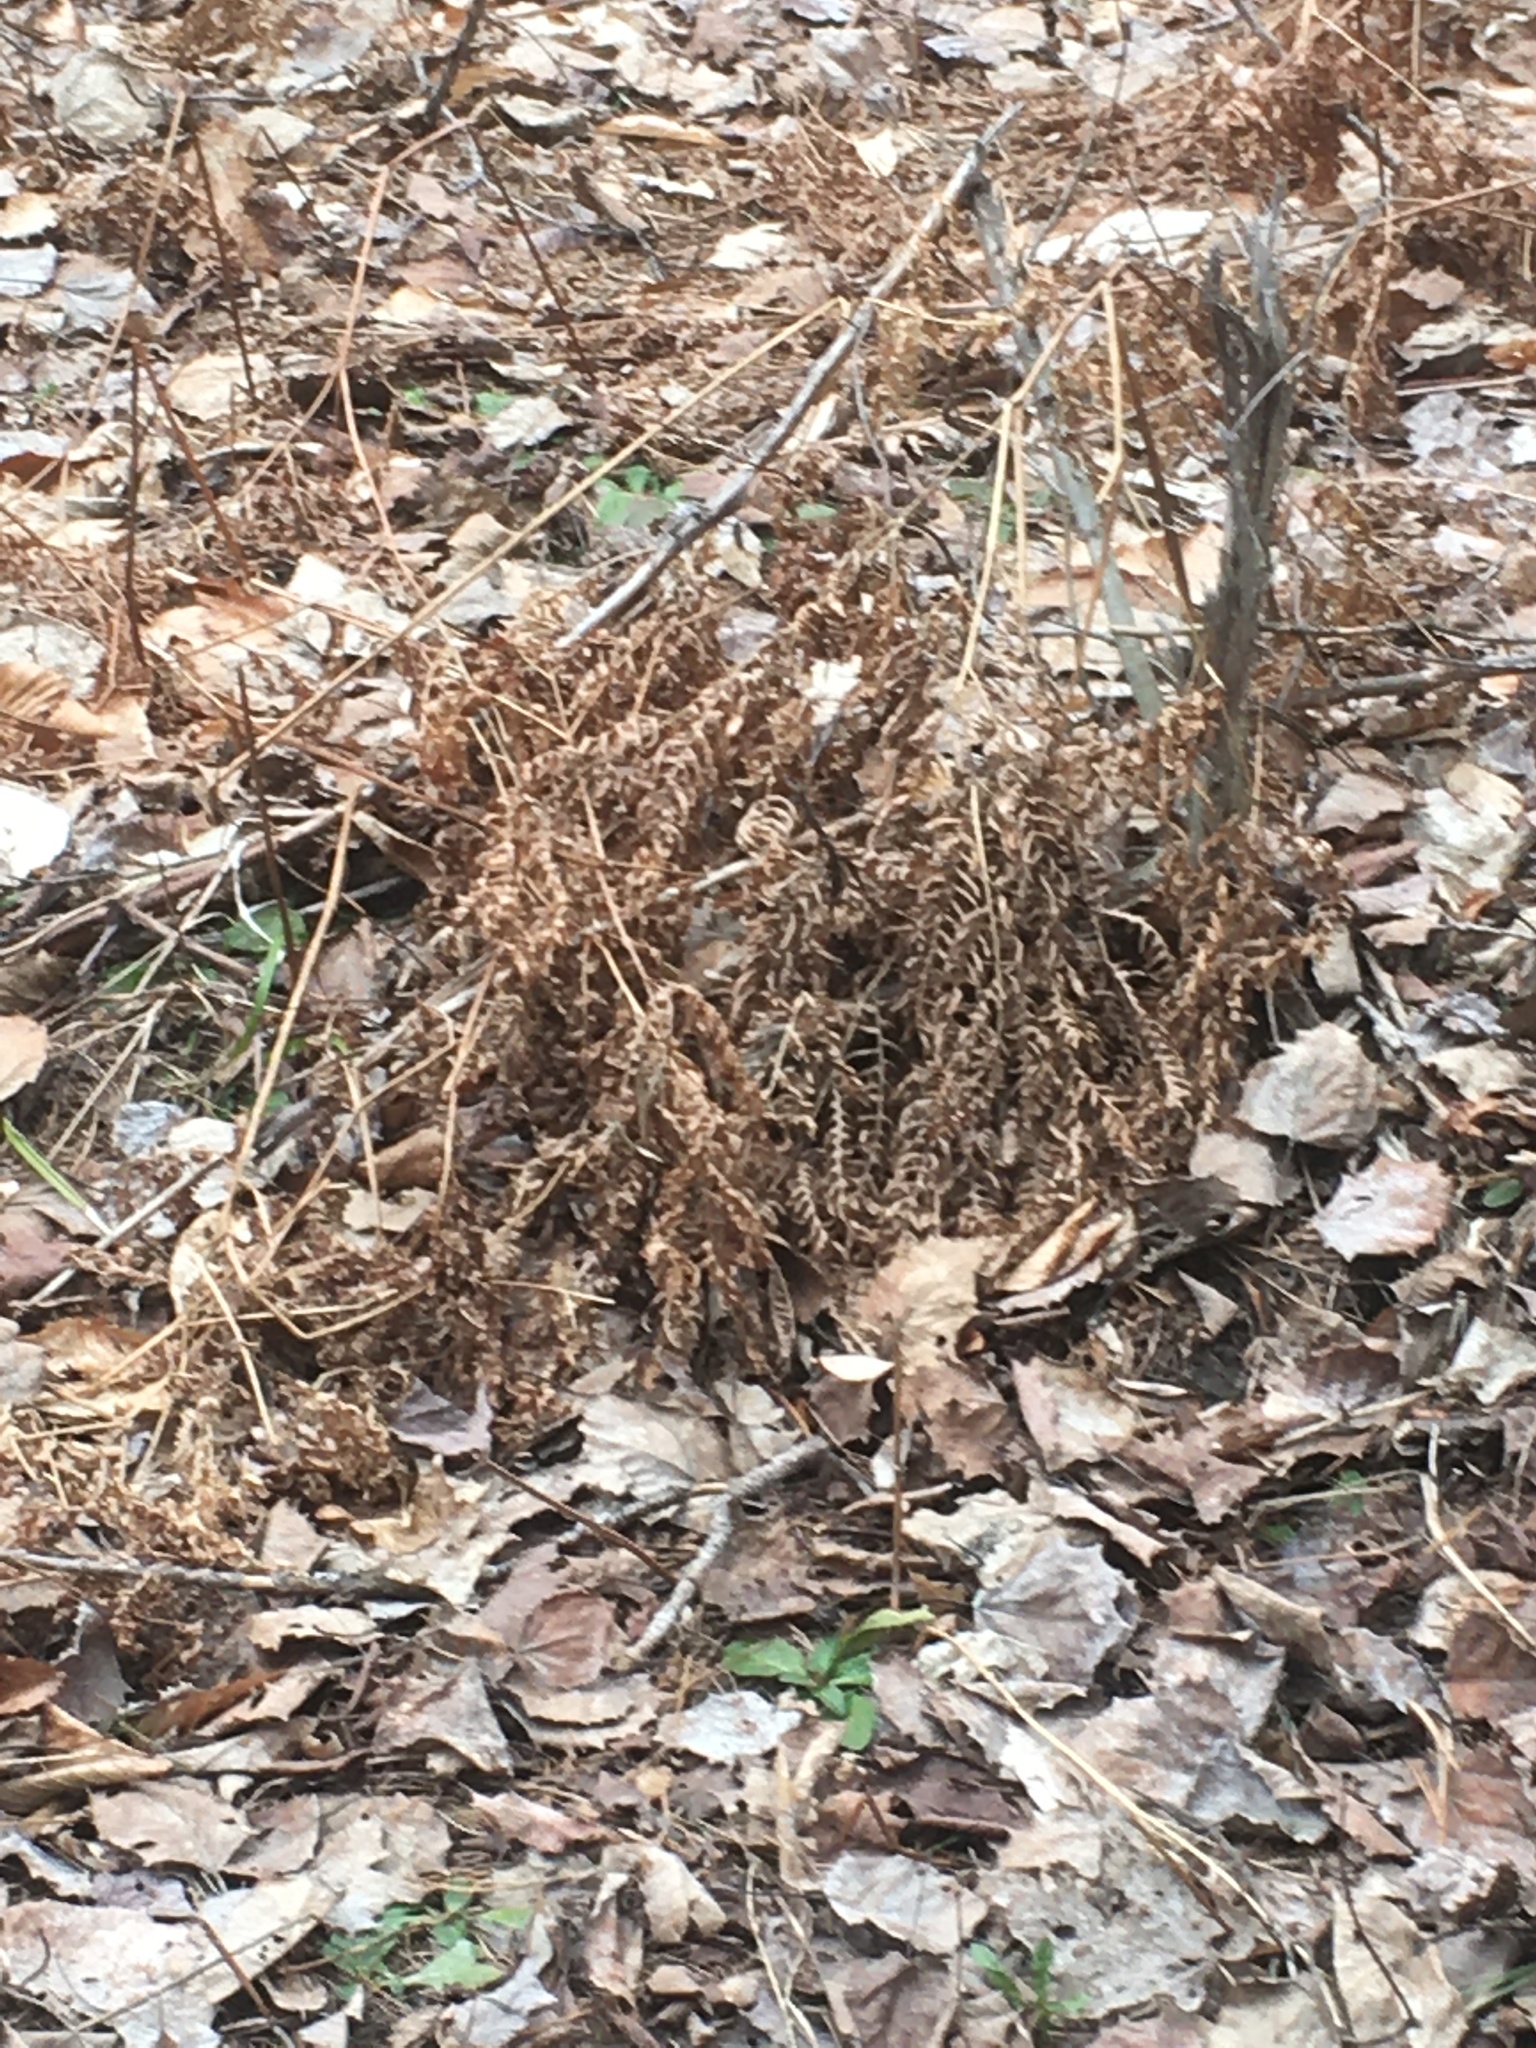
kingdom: Plantae
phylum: Tracheophyta
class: Polypodiopsida
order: Polypodiales
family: Dennstaedtiaceae
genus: Pteridium
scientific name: Pteridium aquilinum
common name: Bracken
